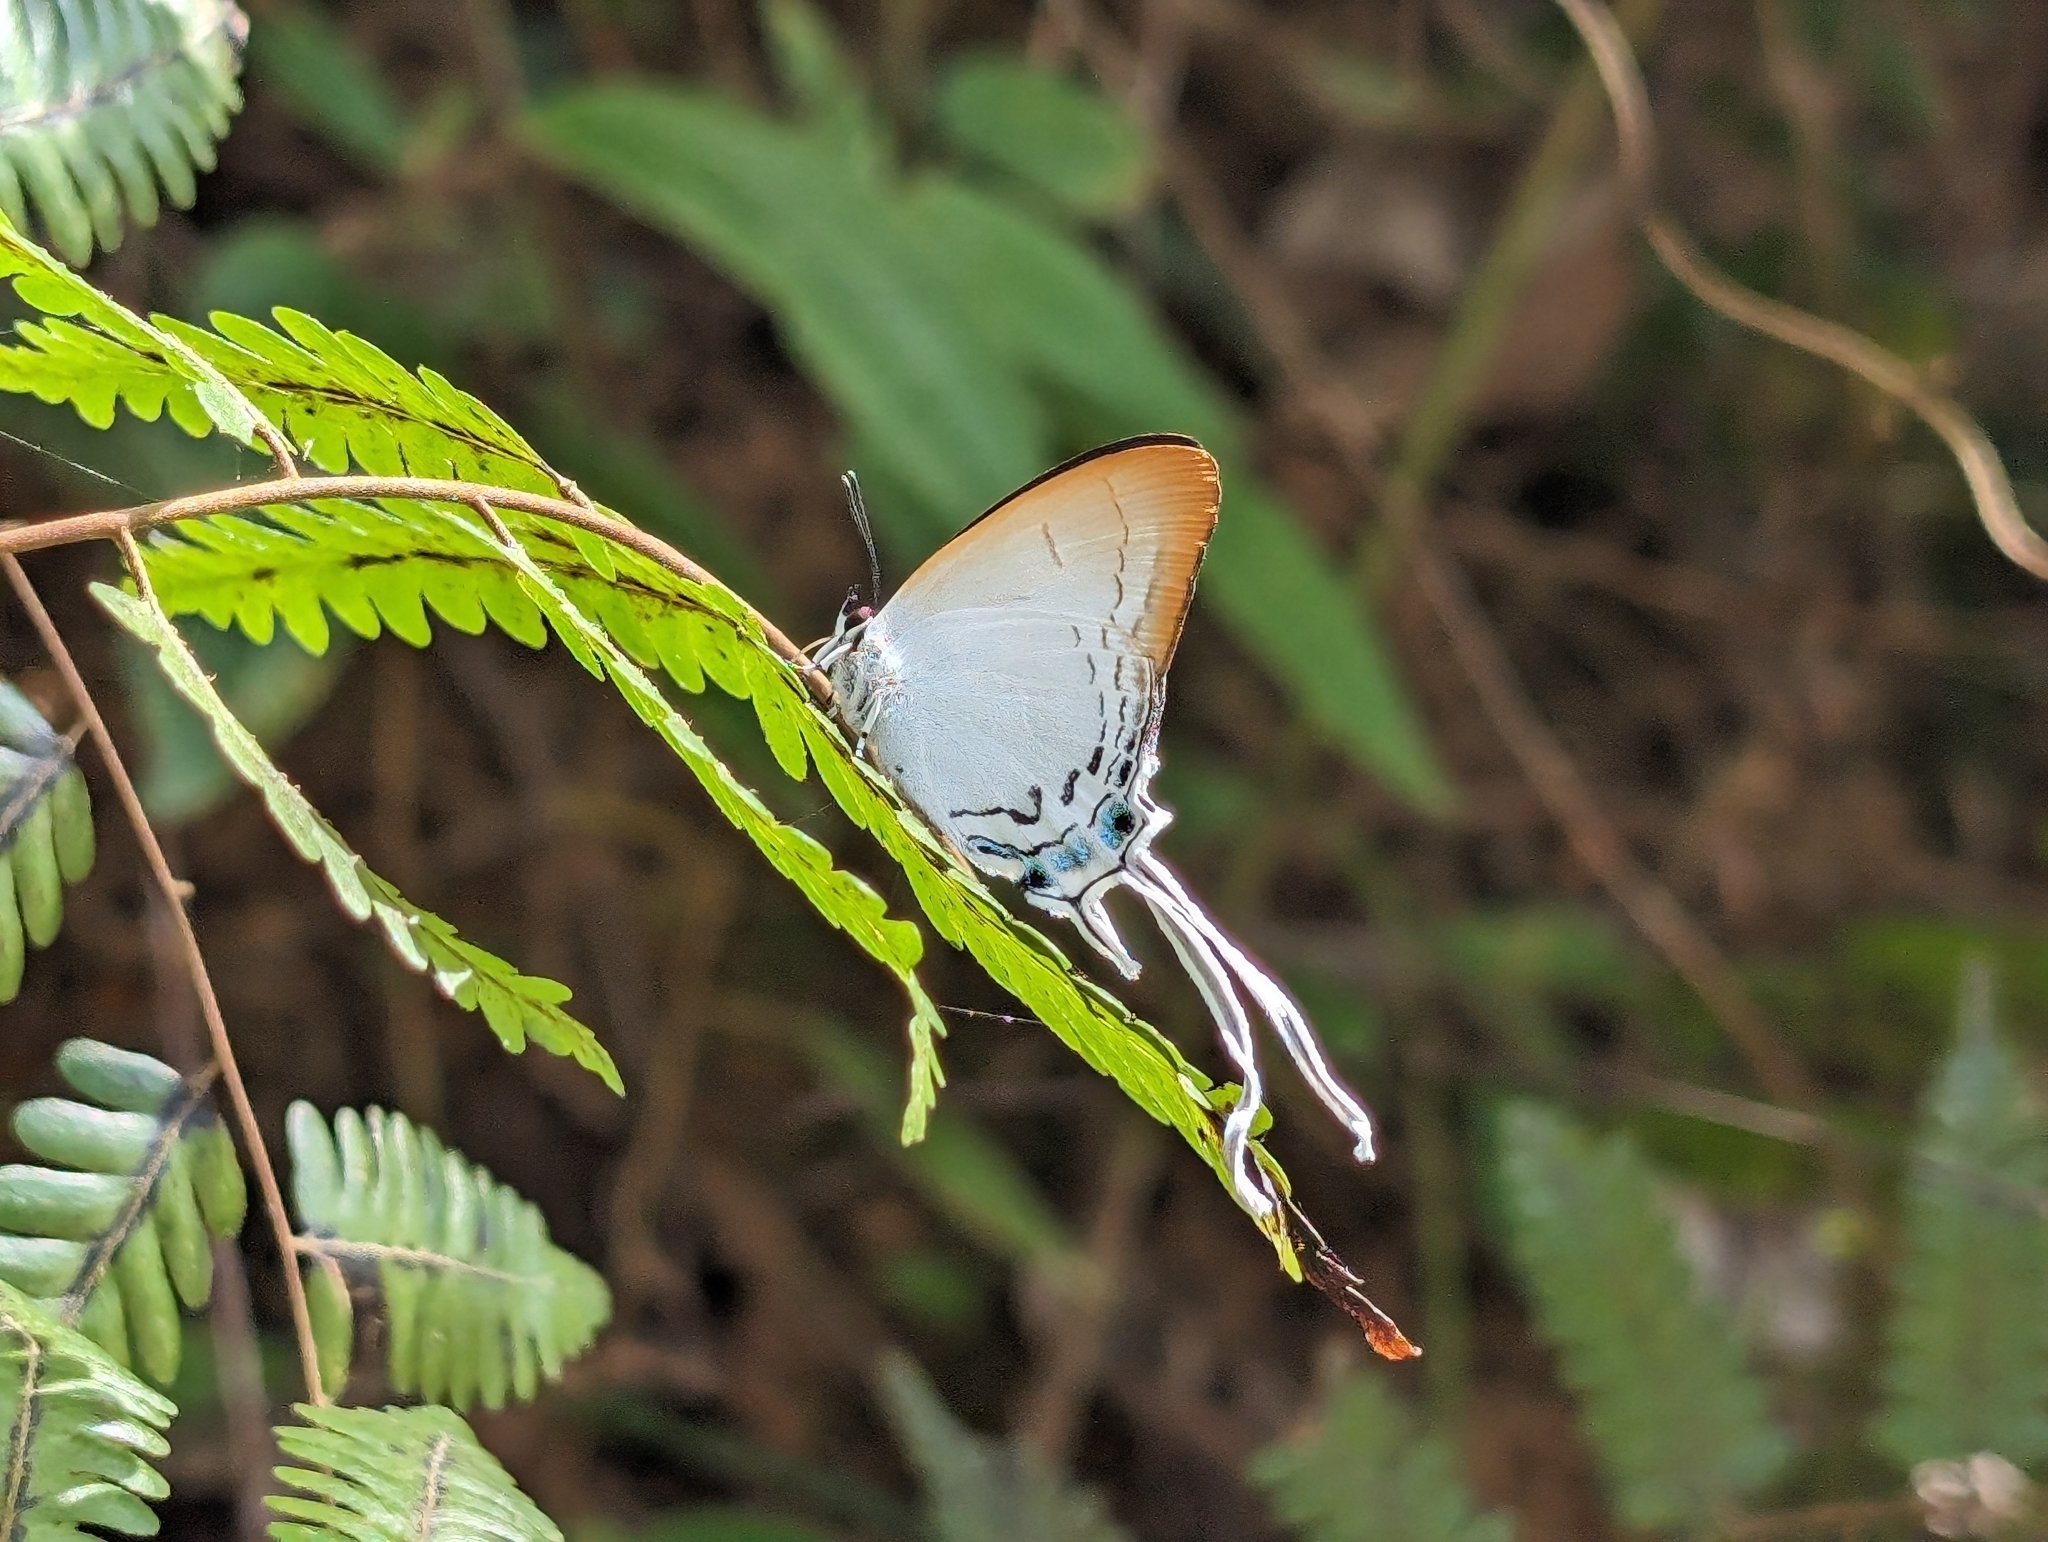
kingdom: Animalia
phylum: Arthropoda
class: Insecta
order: Lepidoptera
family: Lycaenidae
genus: Cheritra
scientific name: Cheritra freja
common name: Common imperial
